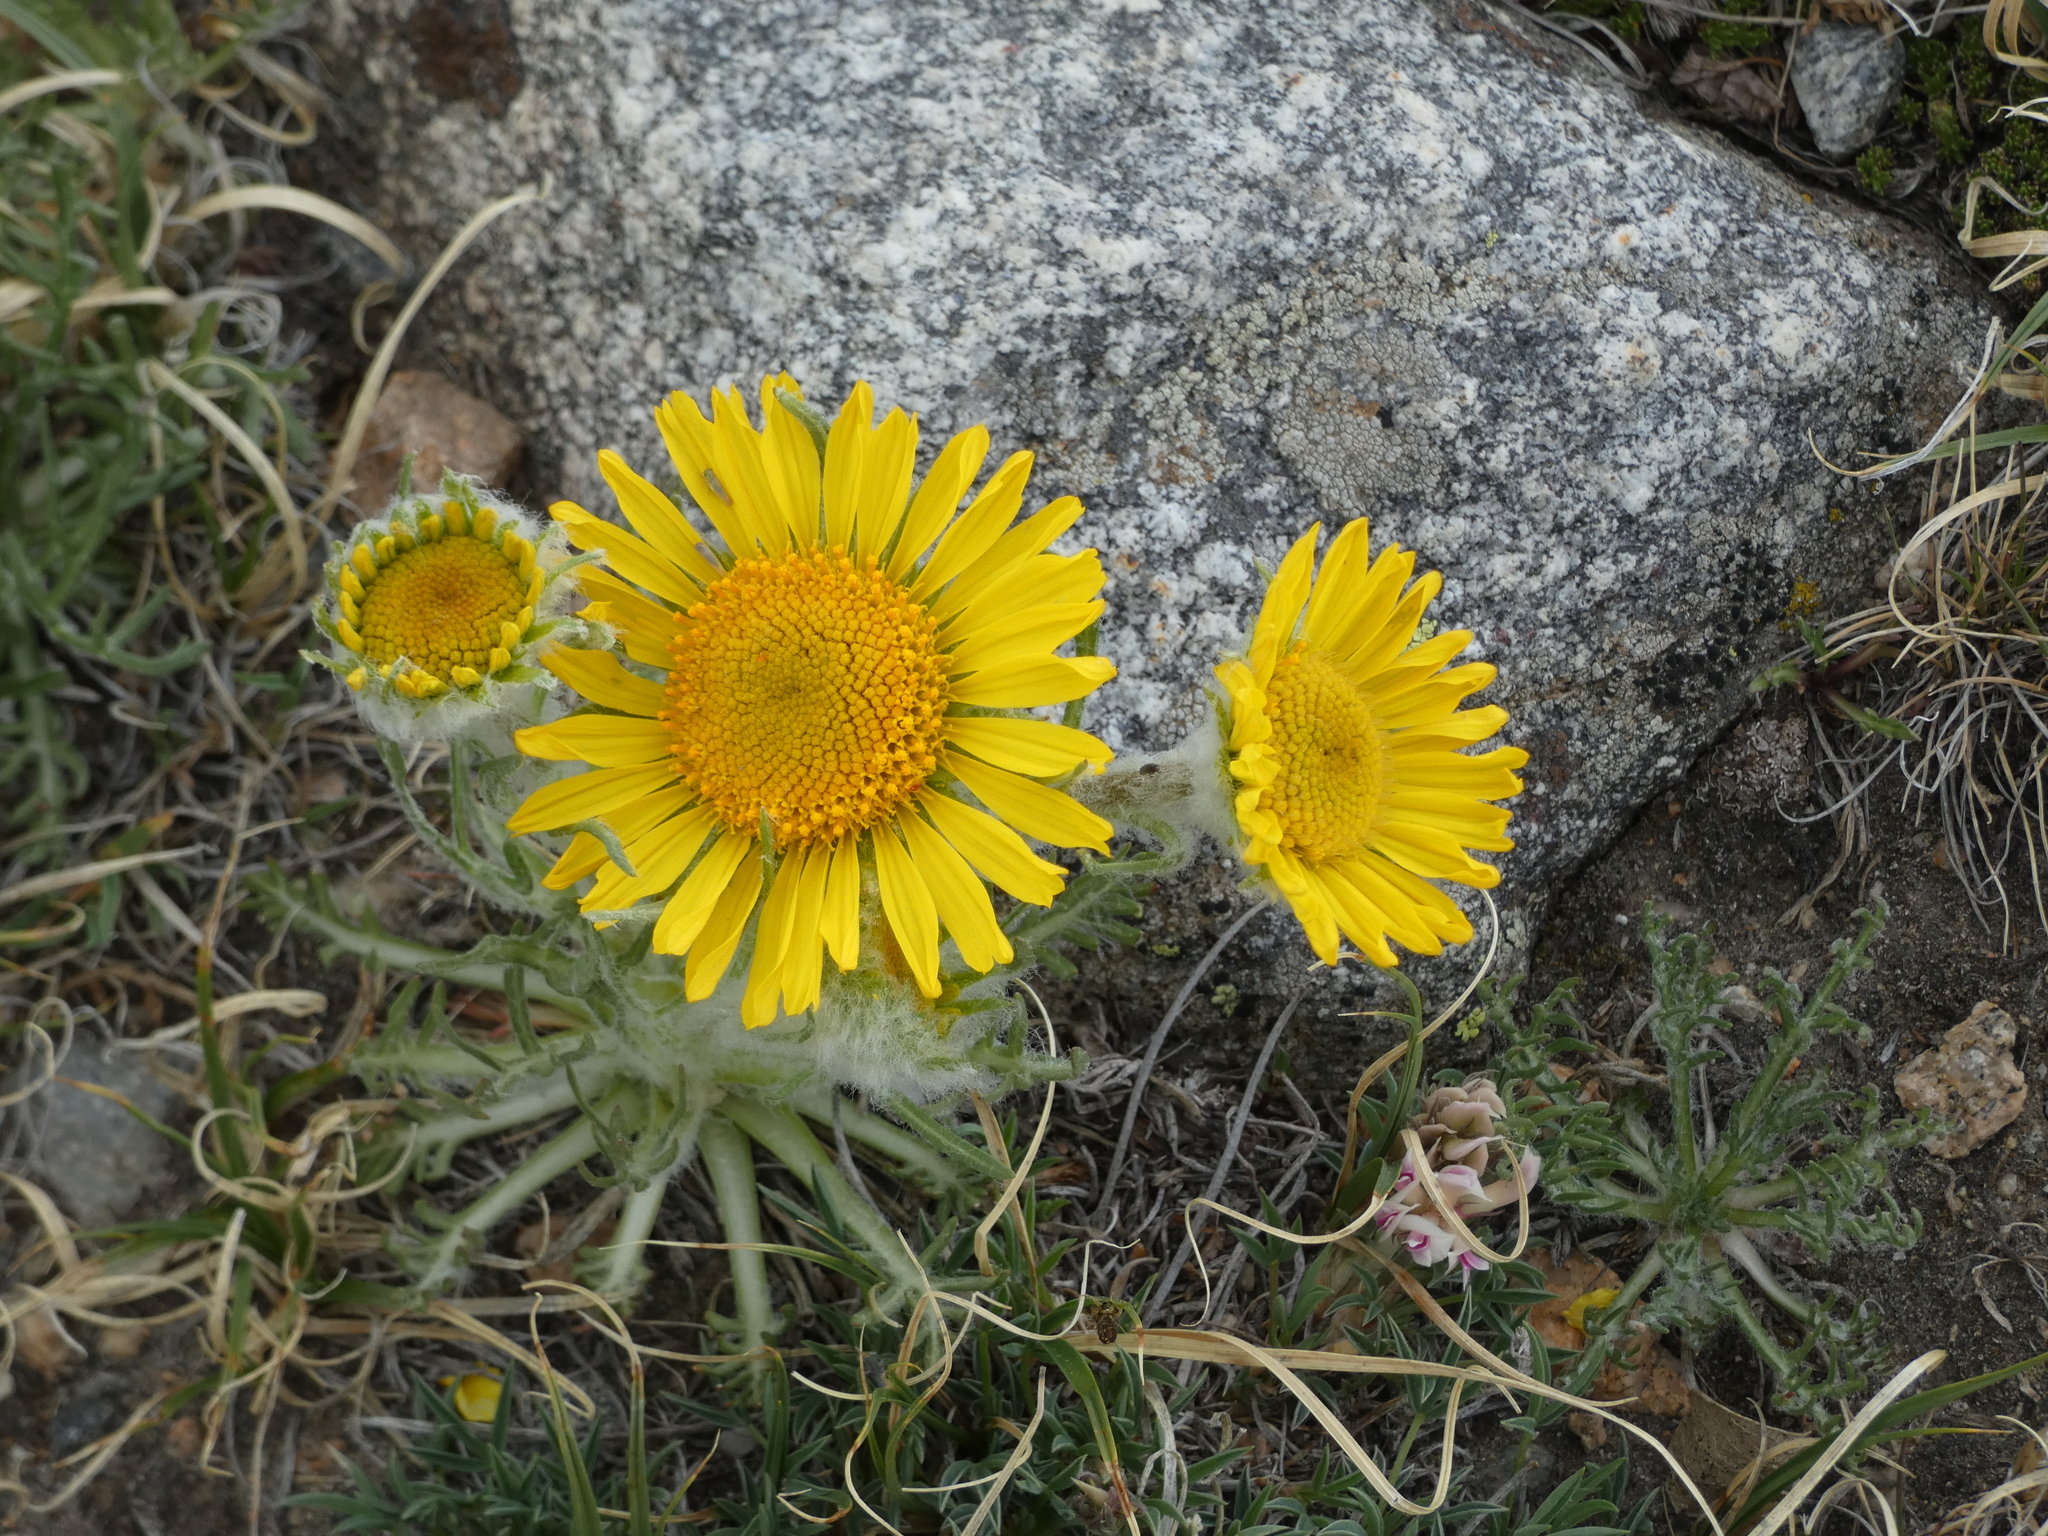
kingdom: Plantae
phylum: Tracheophyta
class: Magnoliopsida
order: Asterales
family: Asteraceae
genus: Hymenoxys
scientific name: Hymenoxys grandiflora
